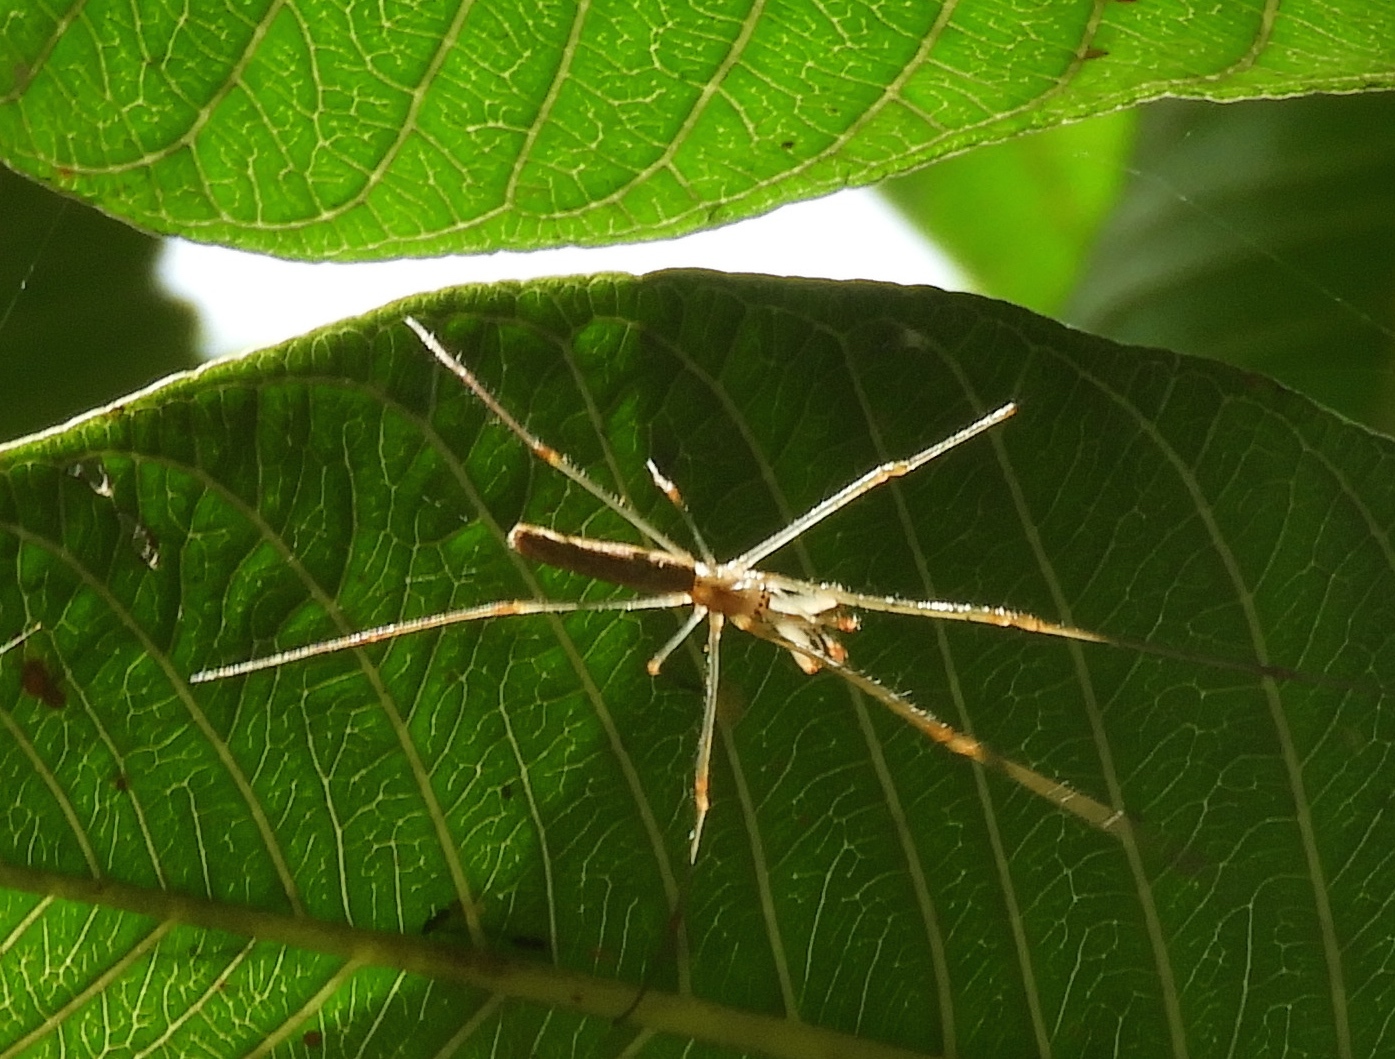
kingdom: Animalia
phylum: Arthropoda
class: Arachnida
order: Araneae
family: Tetragnathidae
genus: Tetragnatha
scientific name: Tetragnatha
